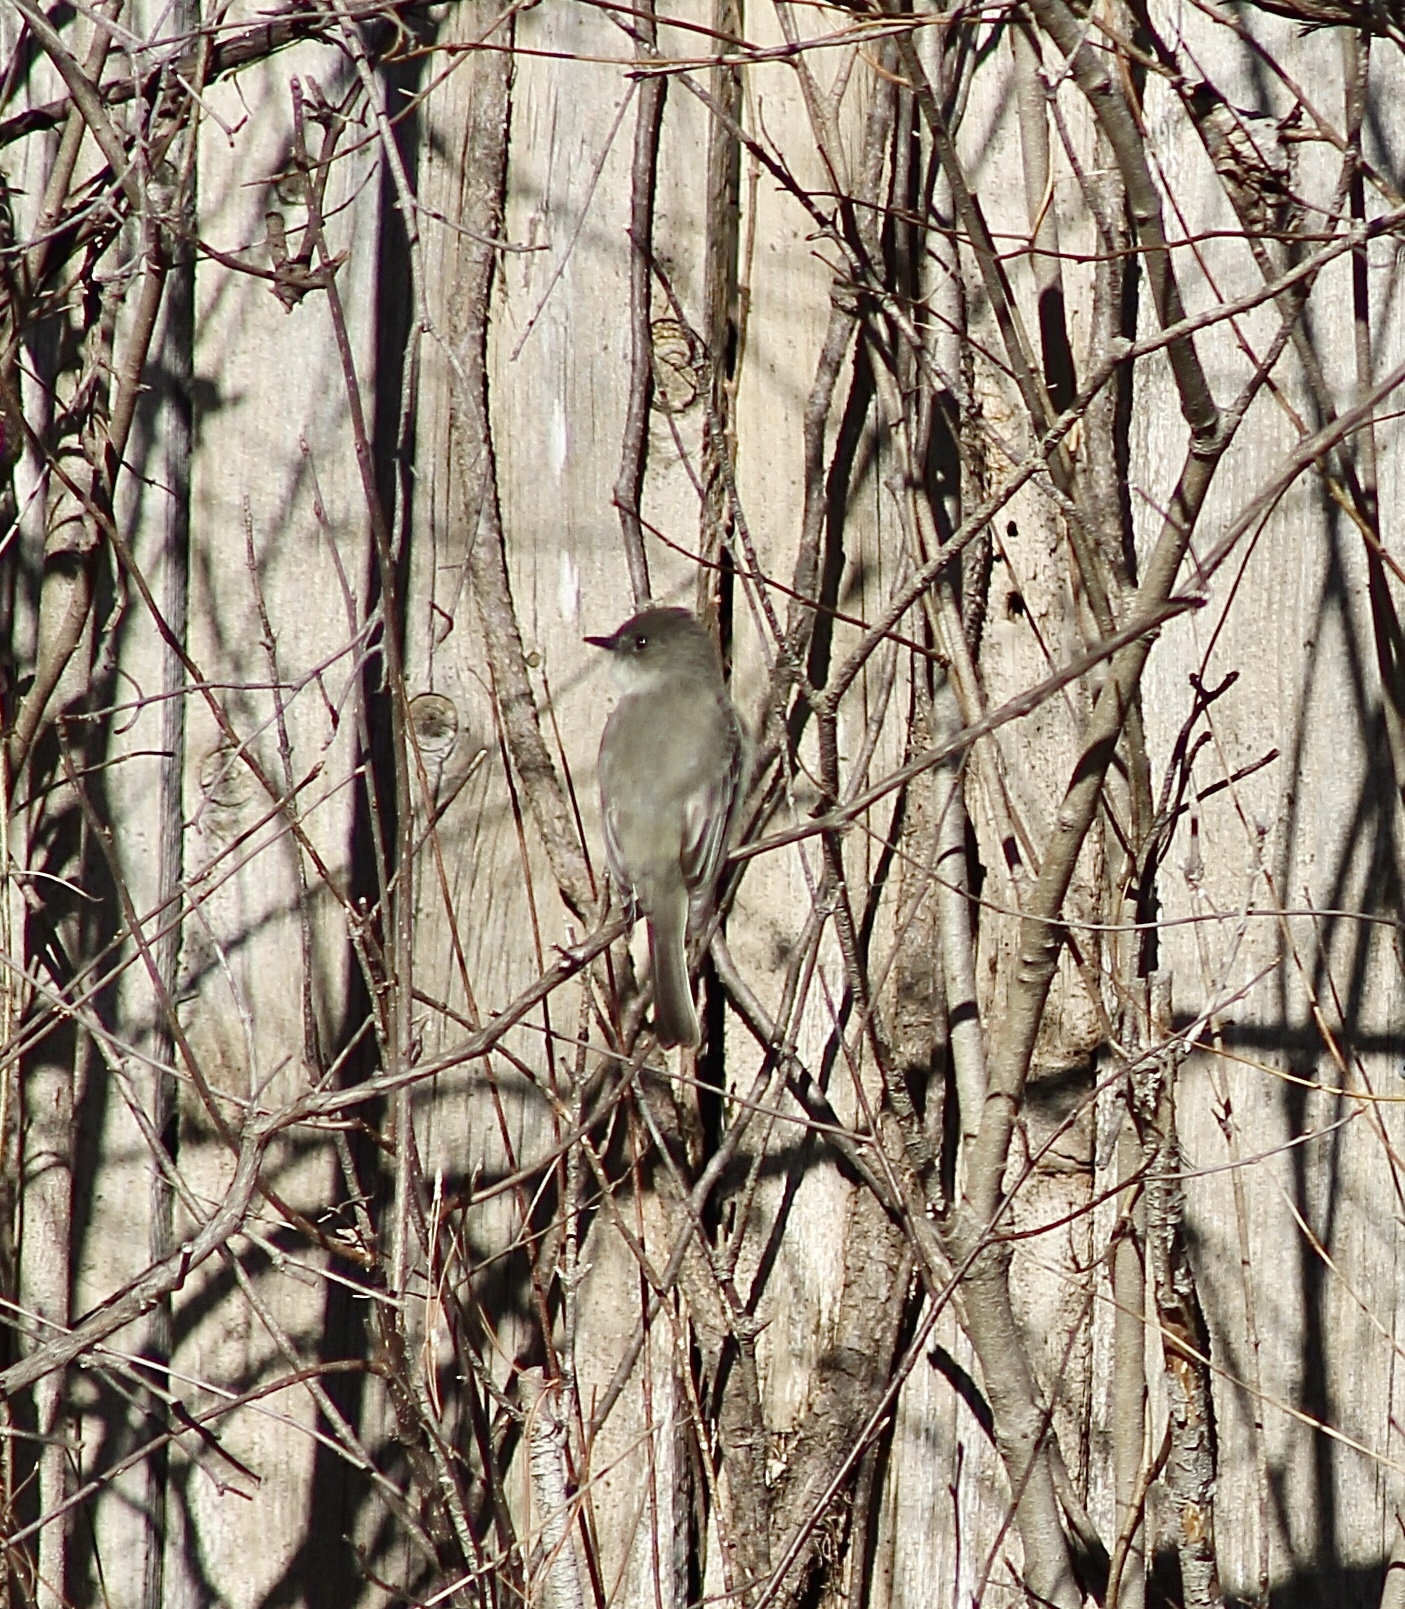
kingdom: Animalia
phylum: Chordata
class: Aves
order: Passeriformes
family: Tyrannidae
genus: Sayornis
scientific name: Sayornis phoebe
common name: Eastern phoebe
